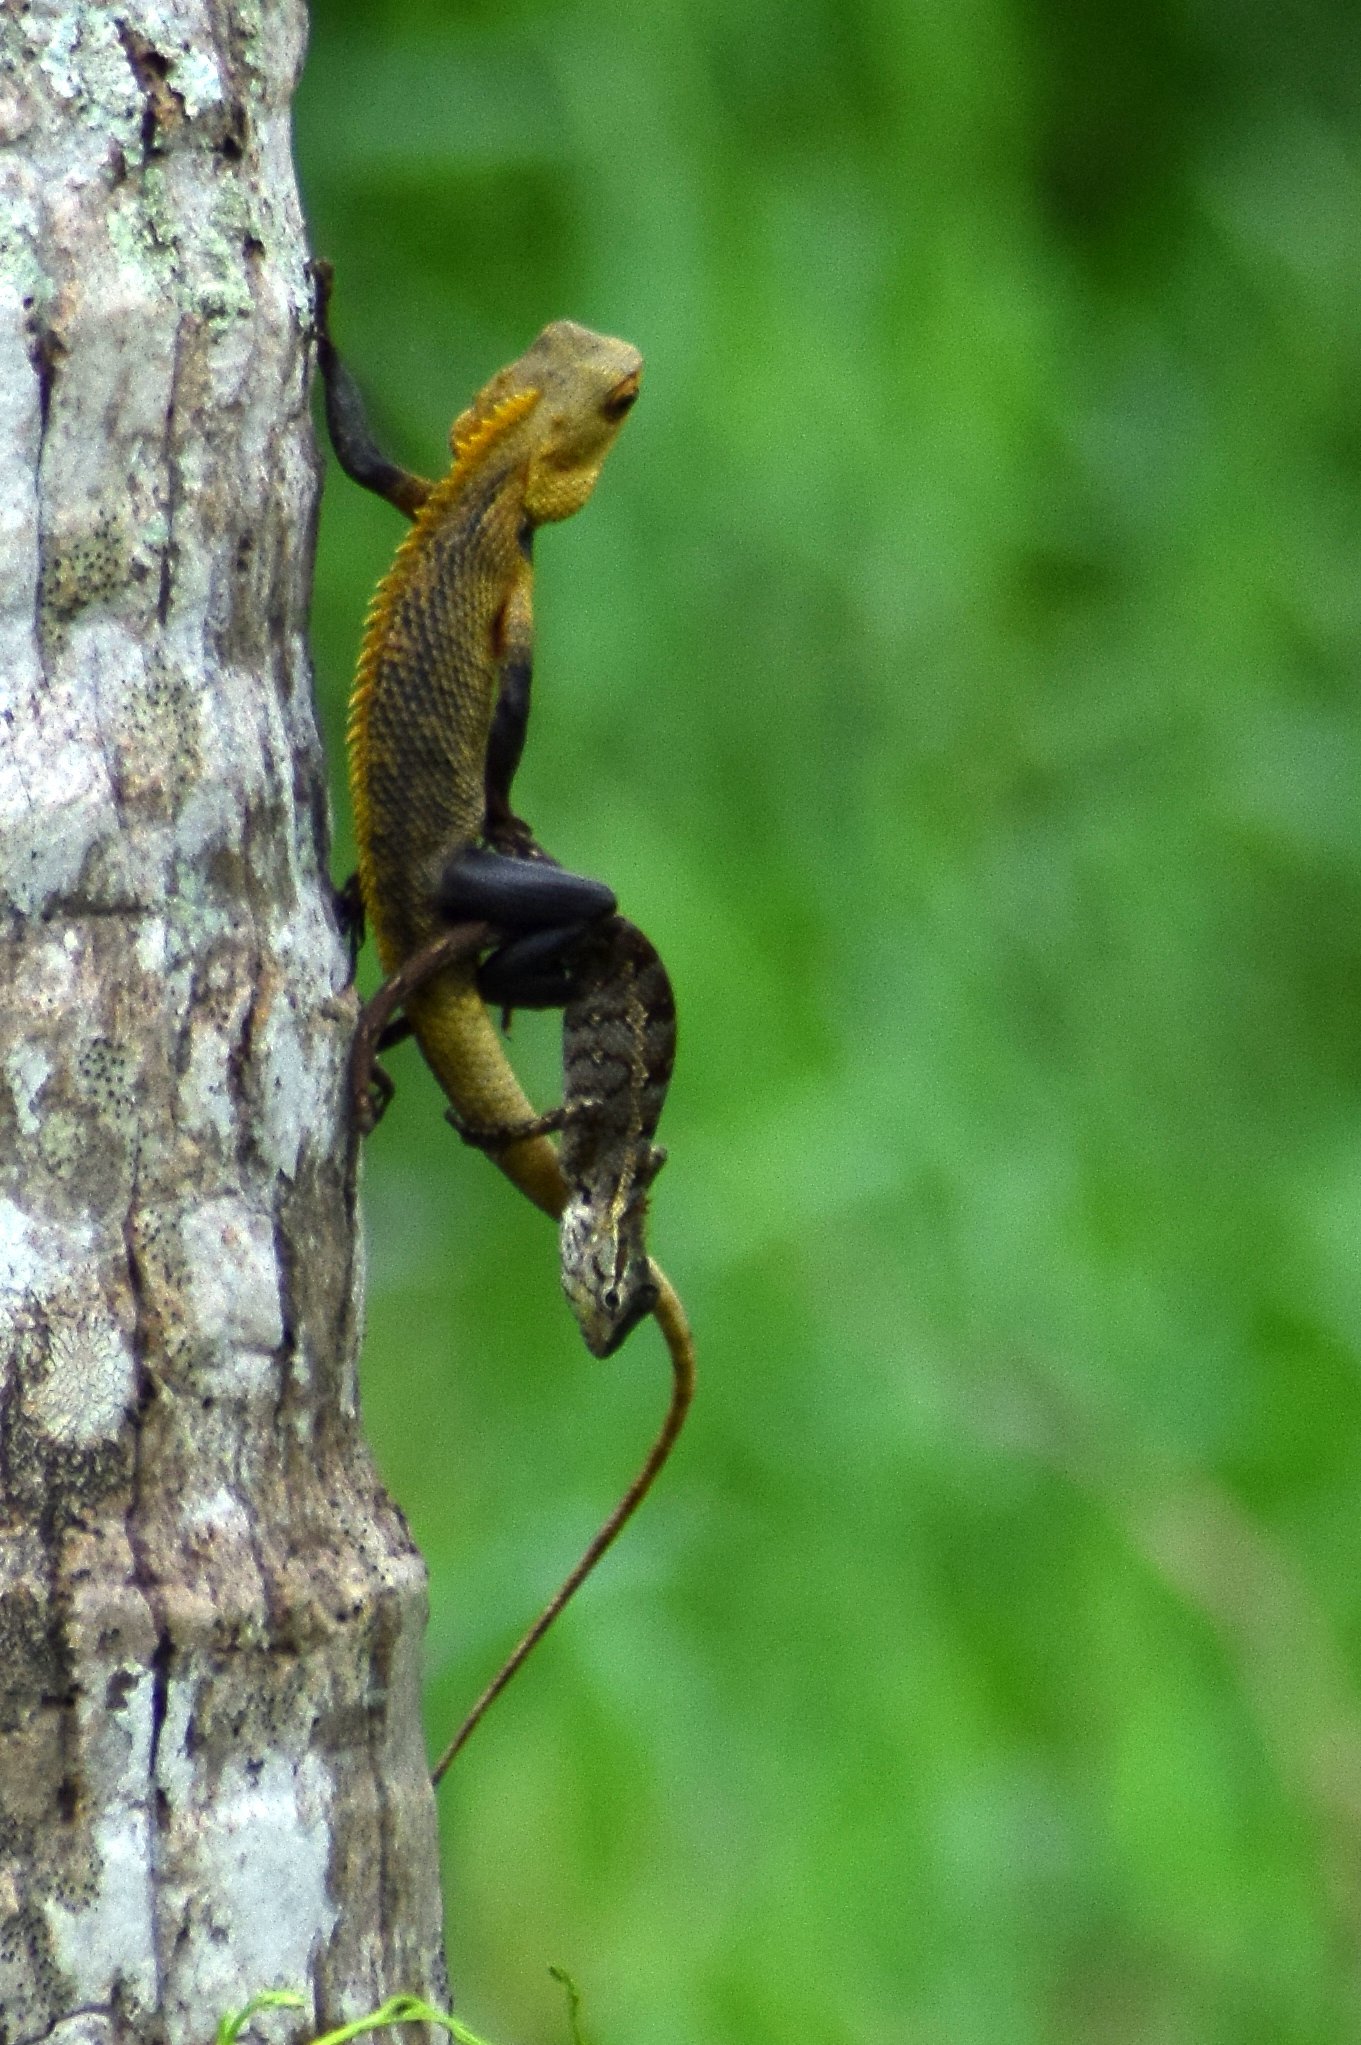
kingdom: Animalia
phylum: Chordata
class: Squamata
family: Agamidae
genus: Calotes
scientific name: Calotes versicolor
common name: Oriental garden lizard
